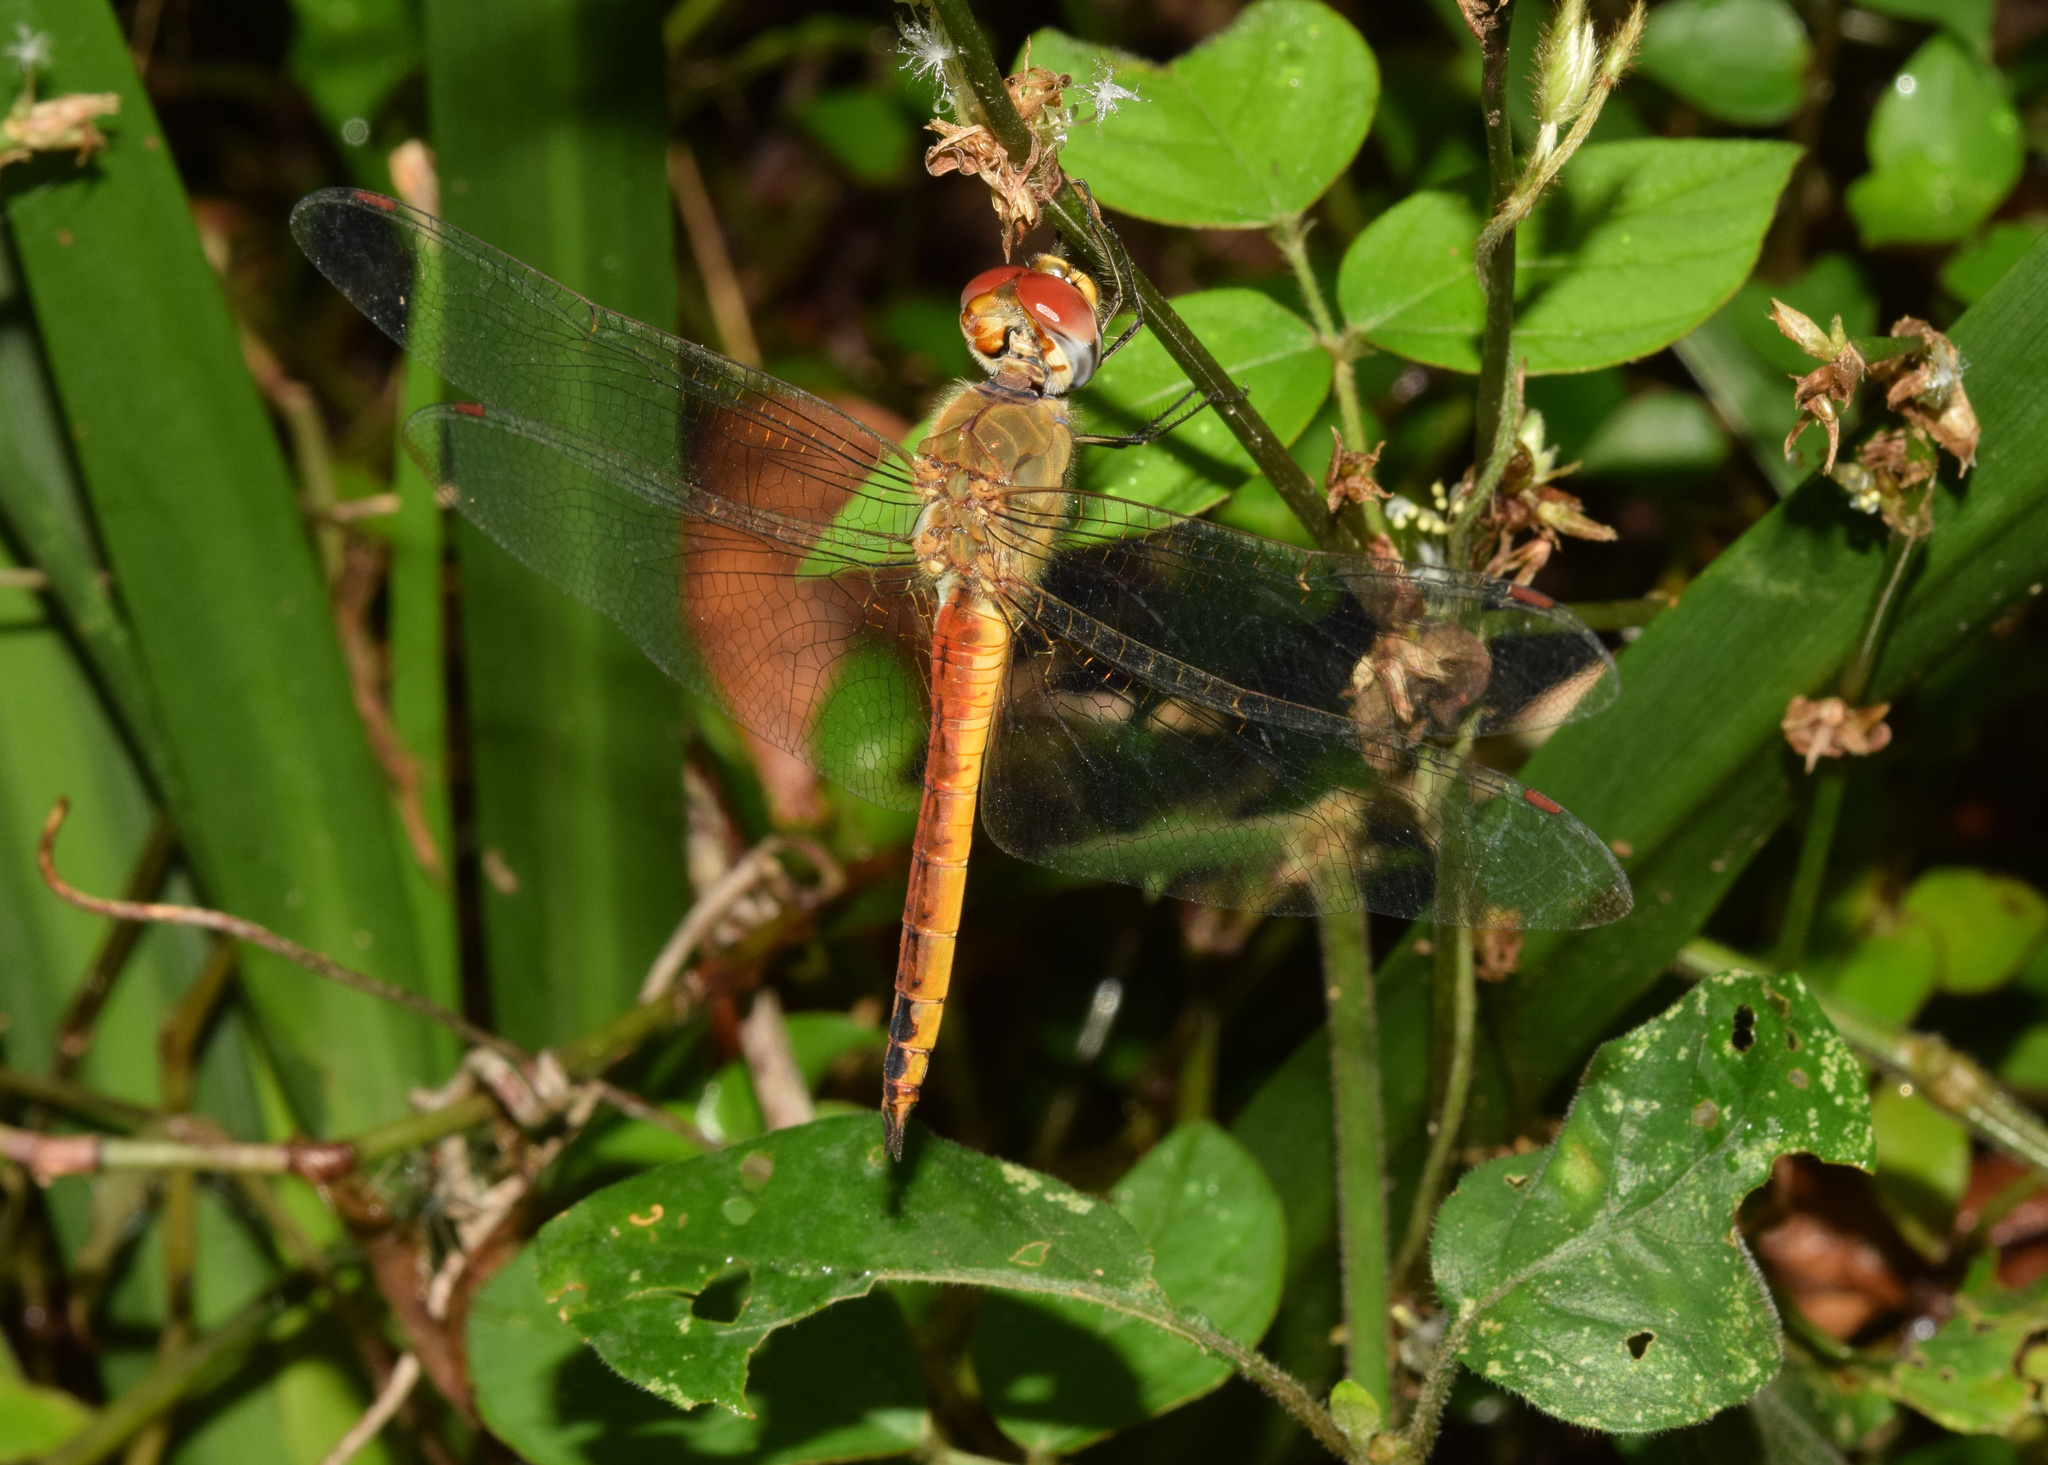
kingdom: Animalia
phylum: Arthropoda
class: Insecta
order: Odonata
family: Libellulidae
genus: Pantala
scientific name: Pantala flavescens
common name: Wandering glider
